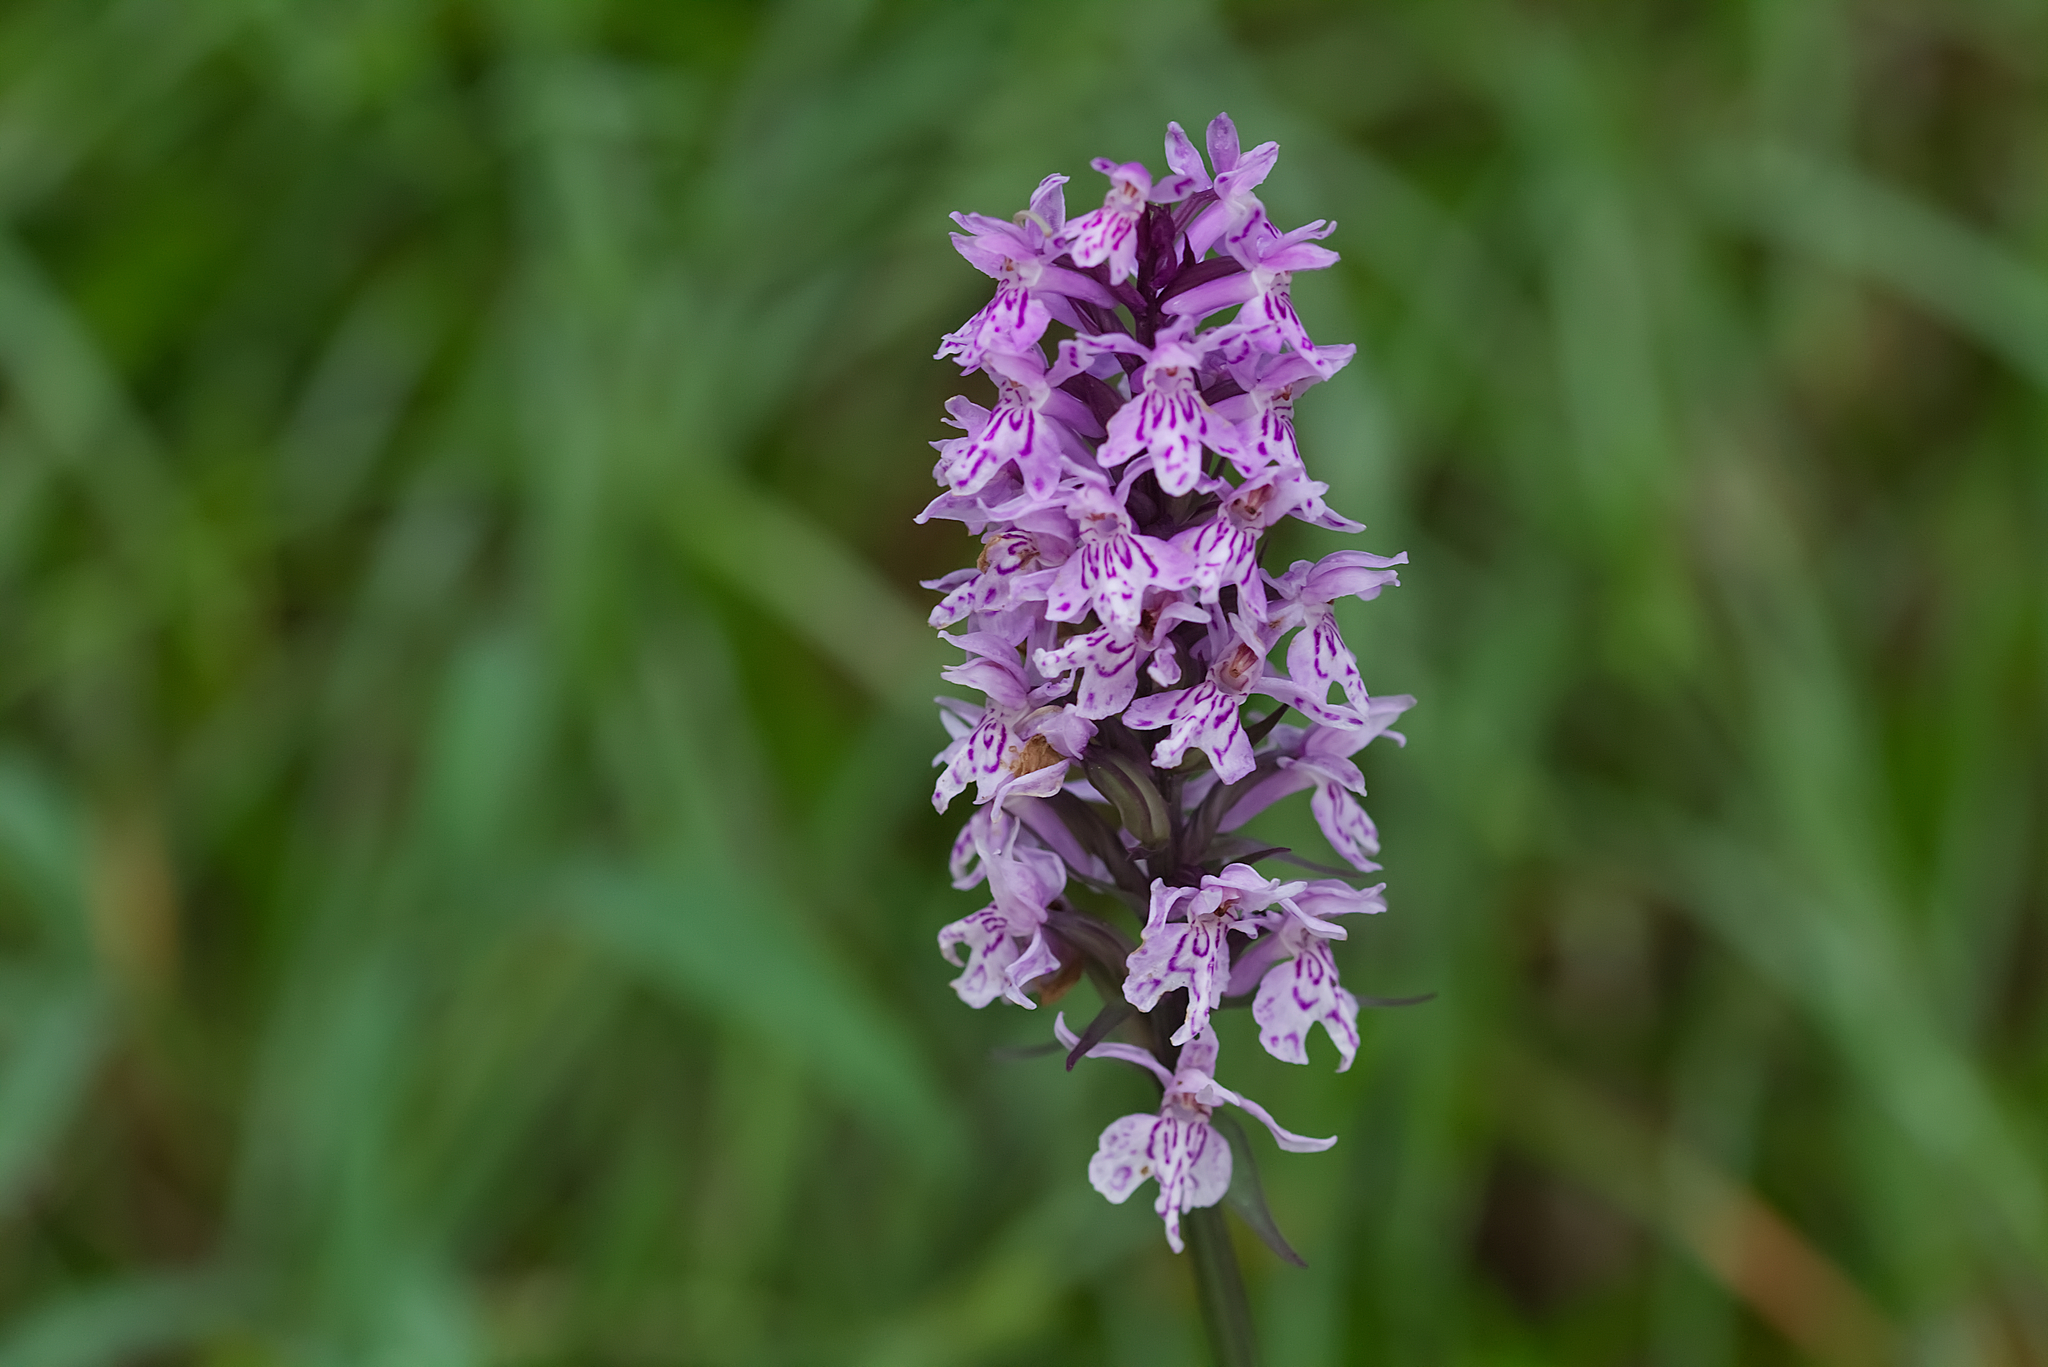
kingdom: Plantae
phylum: Tracheophyta
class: Liliopsida
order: Asparagales
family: Orchidaceae
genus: Dactylorhiza
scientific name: Dactylorhiza maculata
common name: Heath spotted-orchid
